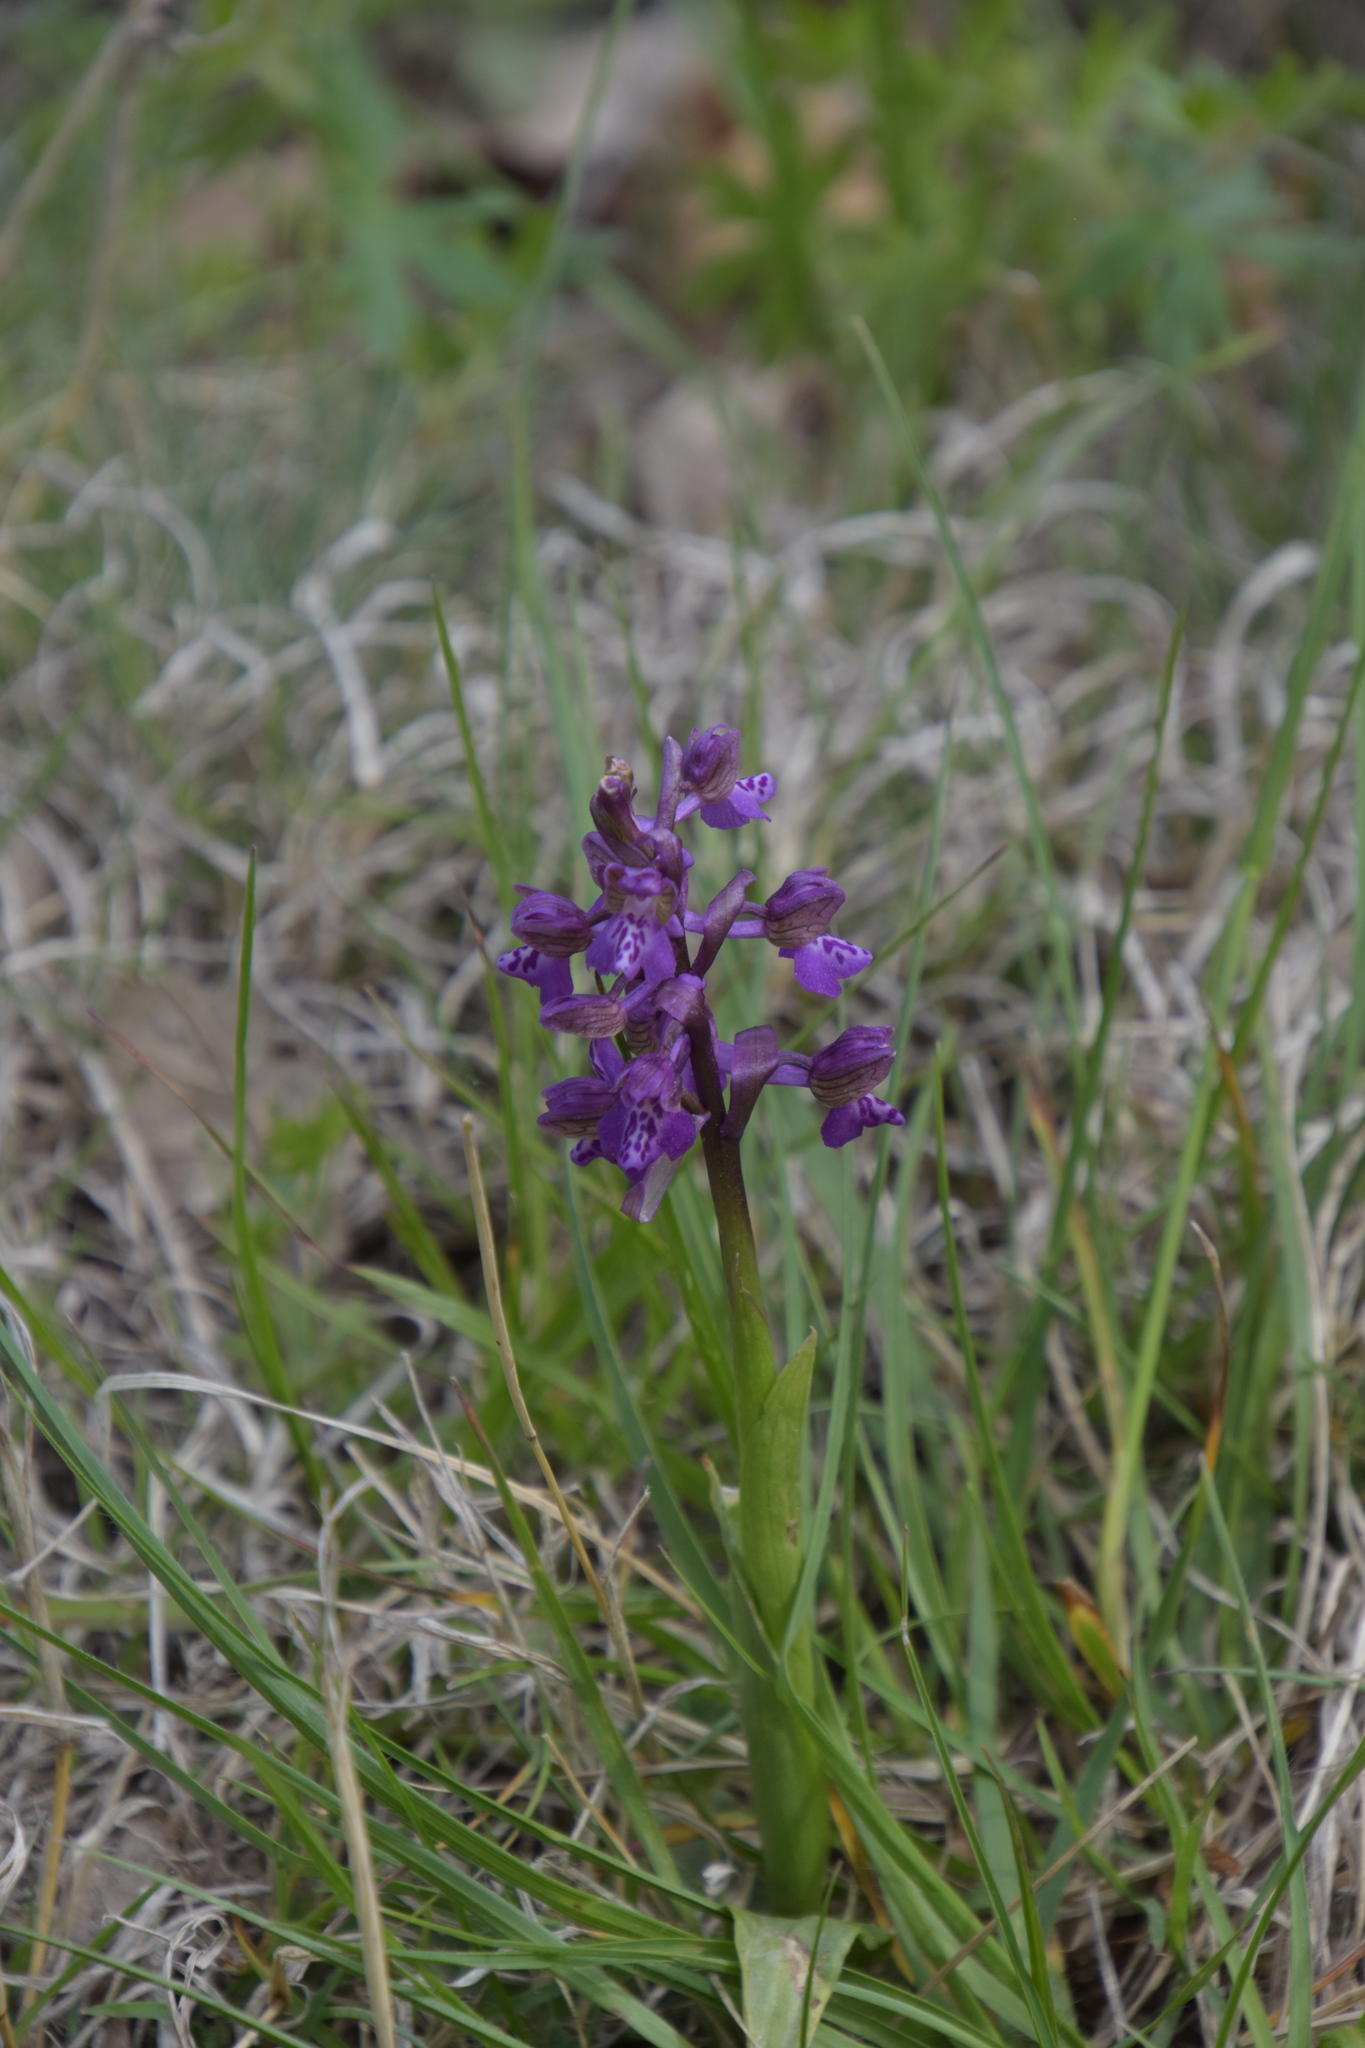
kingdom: Plantae
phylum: Tracheophyta
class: Liliopsida
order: Asparagales
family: Orchidaceae
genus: Anacamptis
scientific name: Anacamptis morio
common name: Green-winged orchid
